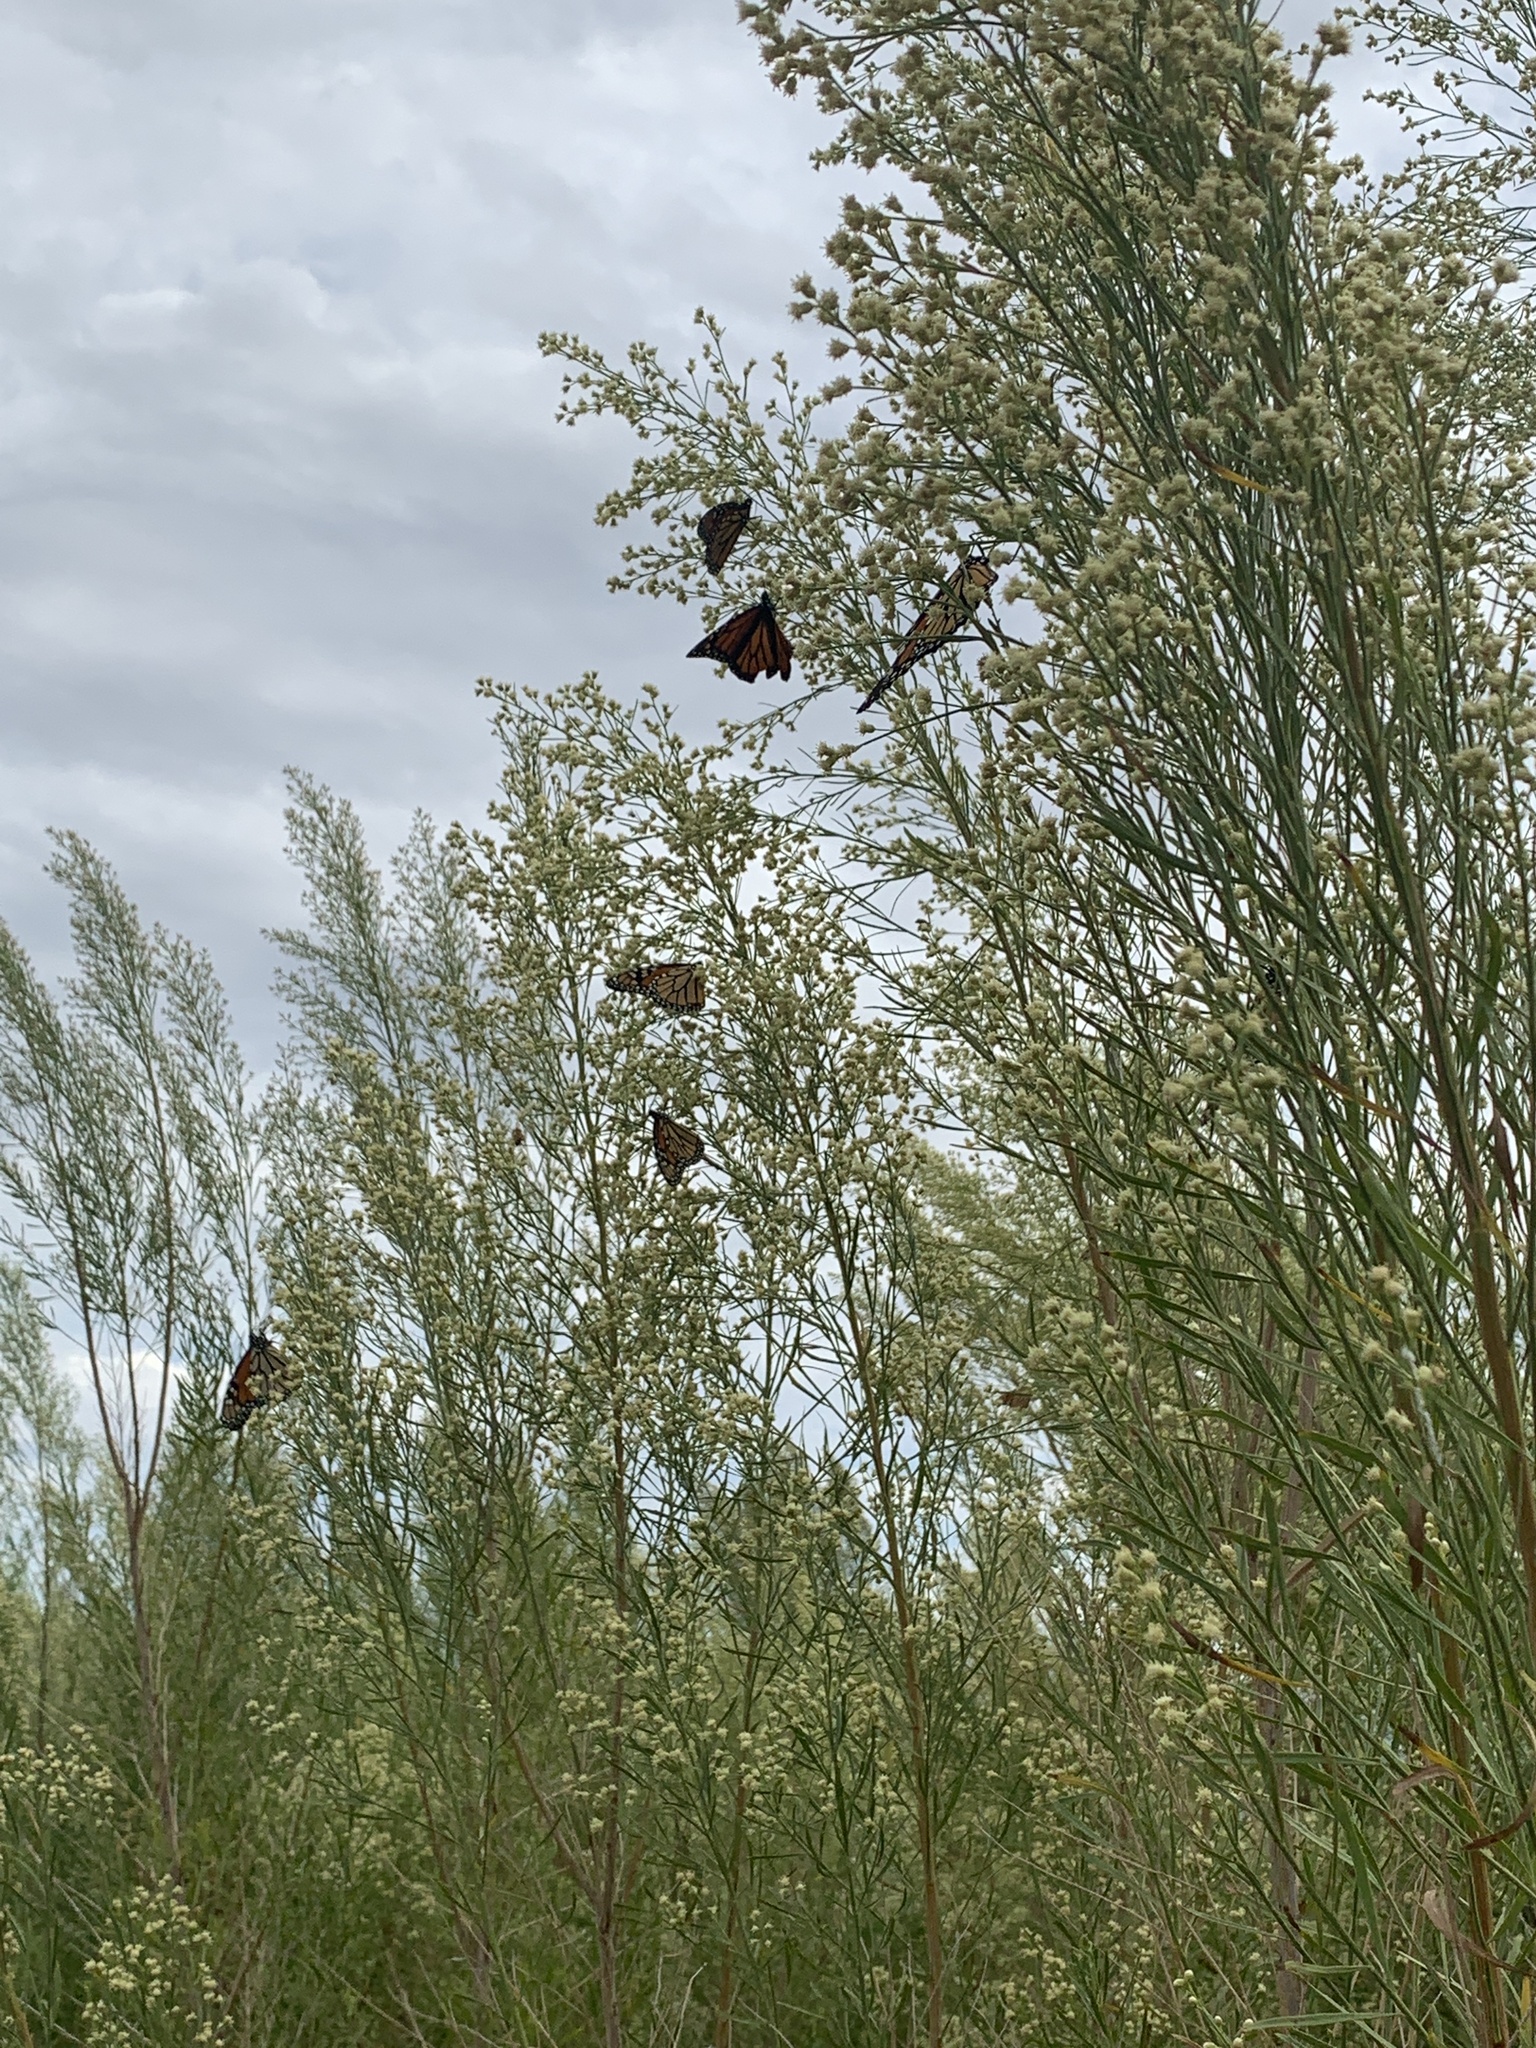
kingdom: Animalia
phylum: Arthropoda
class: Insecta
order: Lepidoptera
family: Nymphalidae
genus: Danaus
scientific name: Danaus plexippus
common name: Monarch
